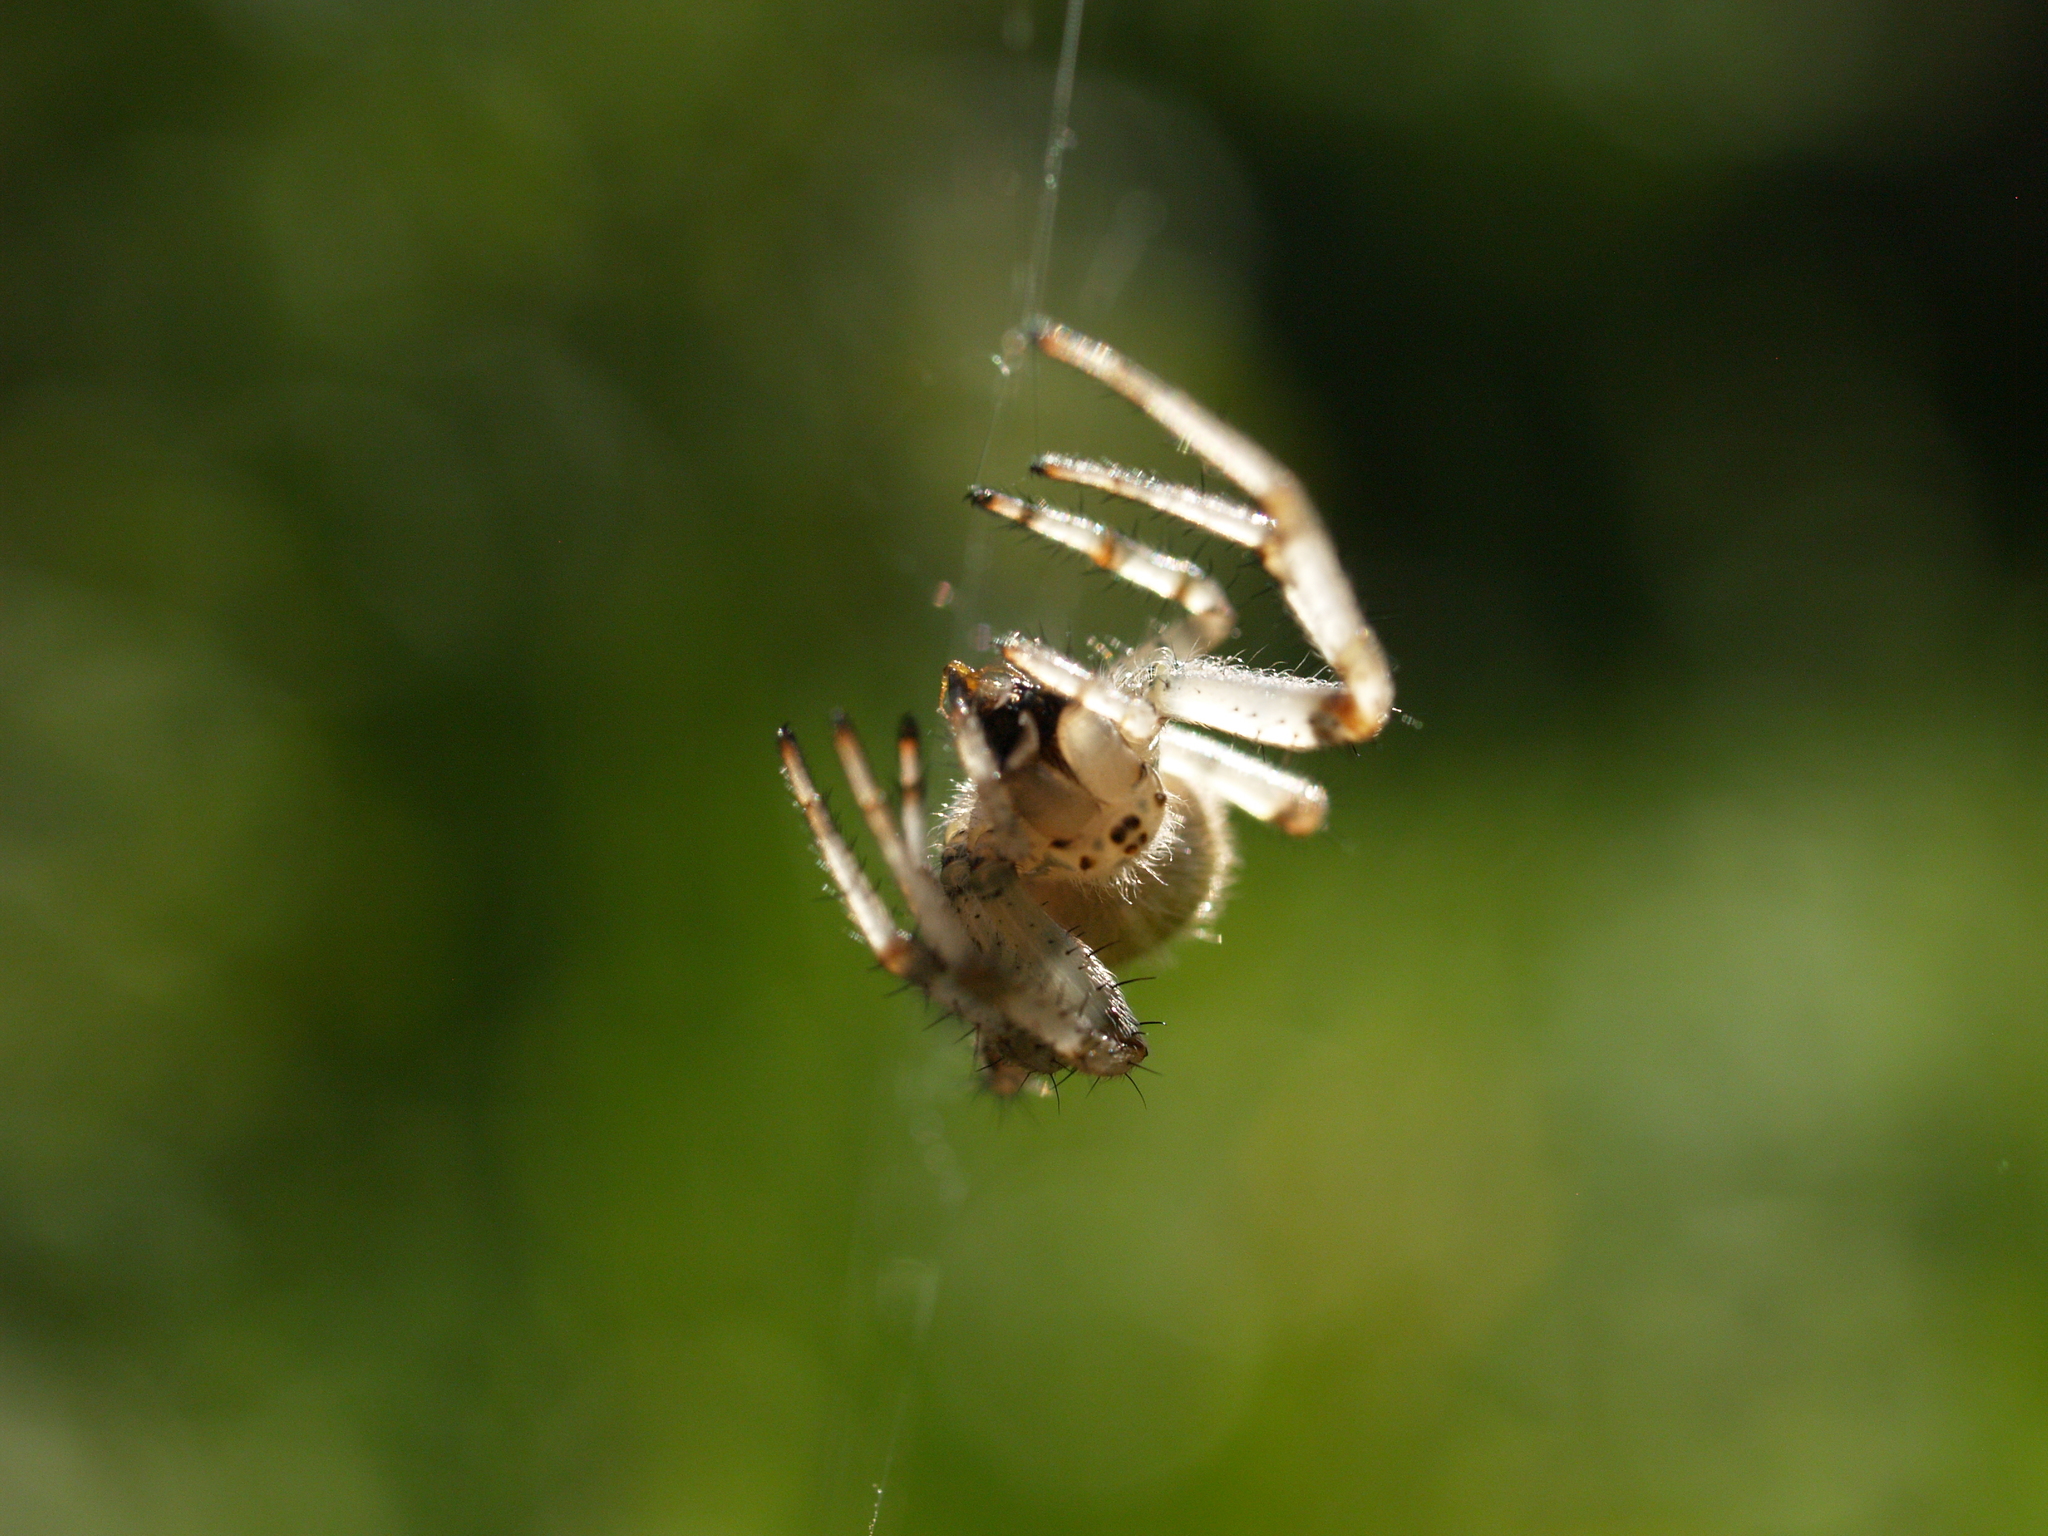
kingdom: Animalia
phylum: Arthropoda
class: Arachnida
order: Araneae
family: Araneidae
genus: Araneus
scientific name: Araneus quadratus
